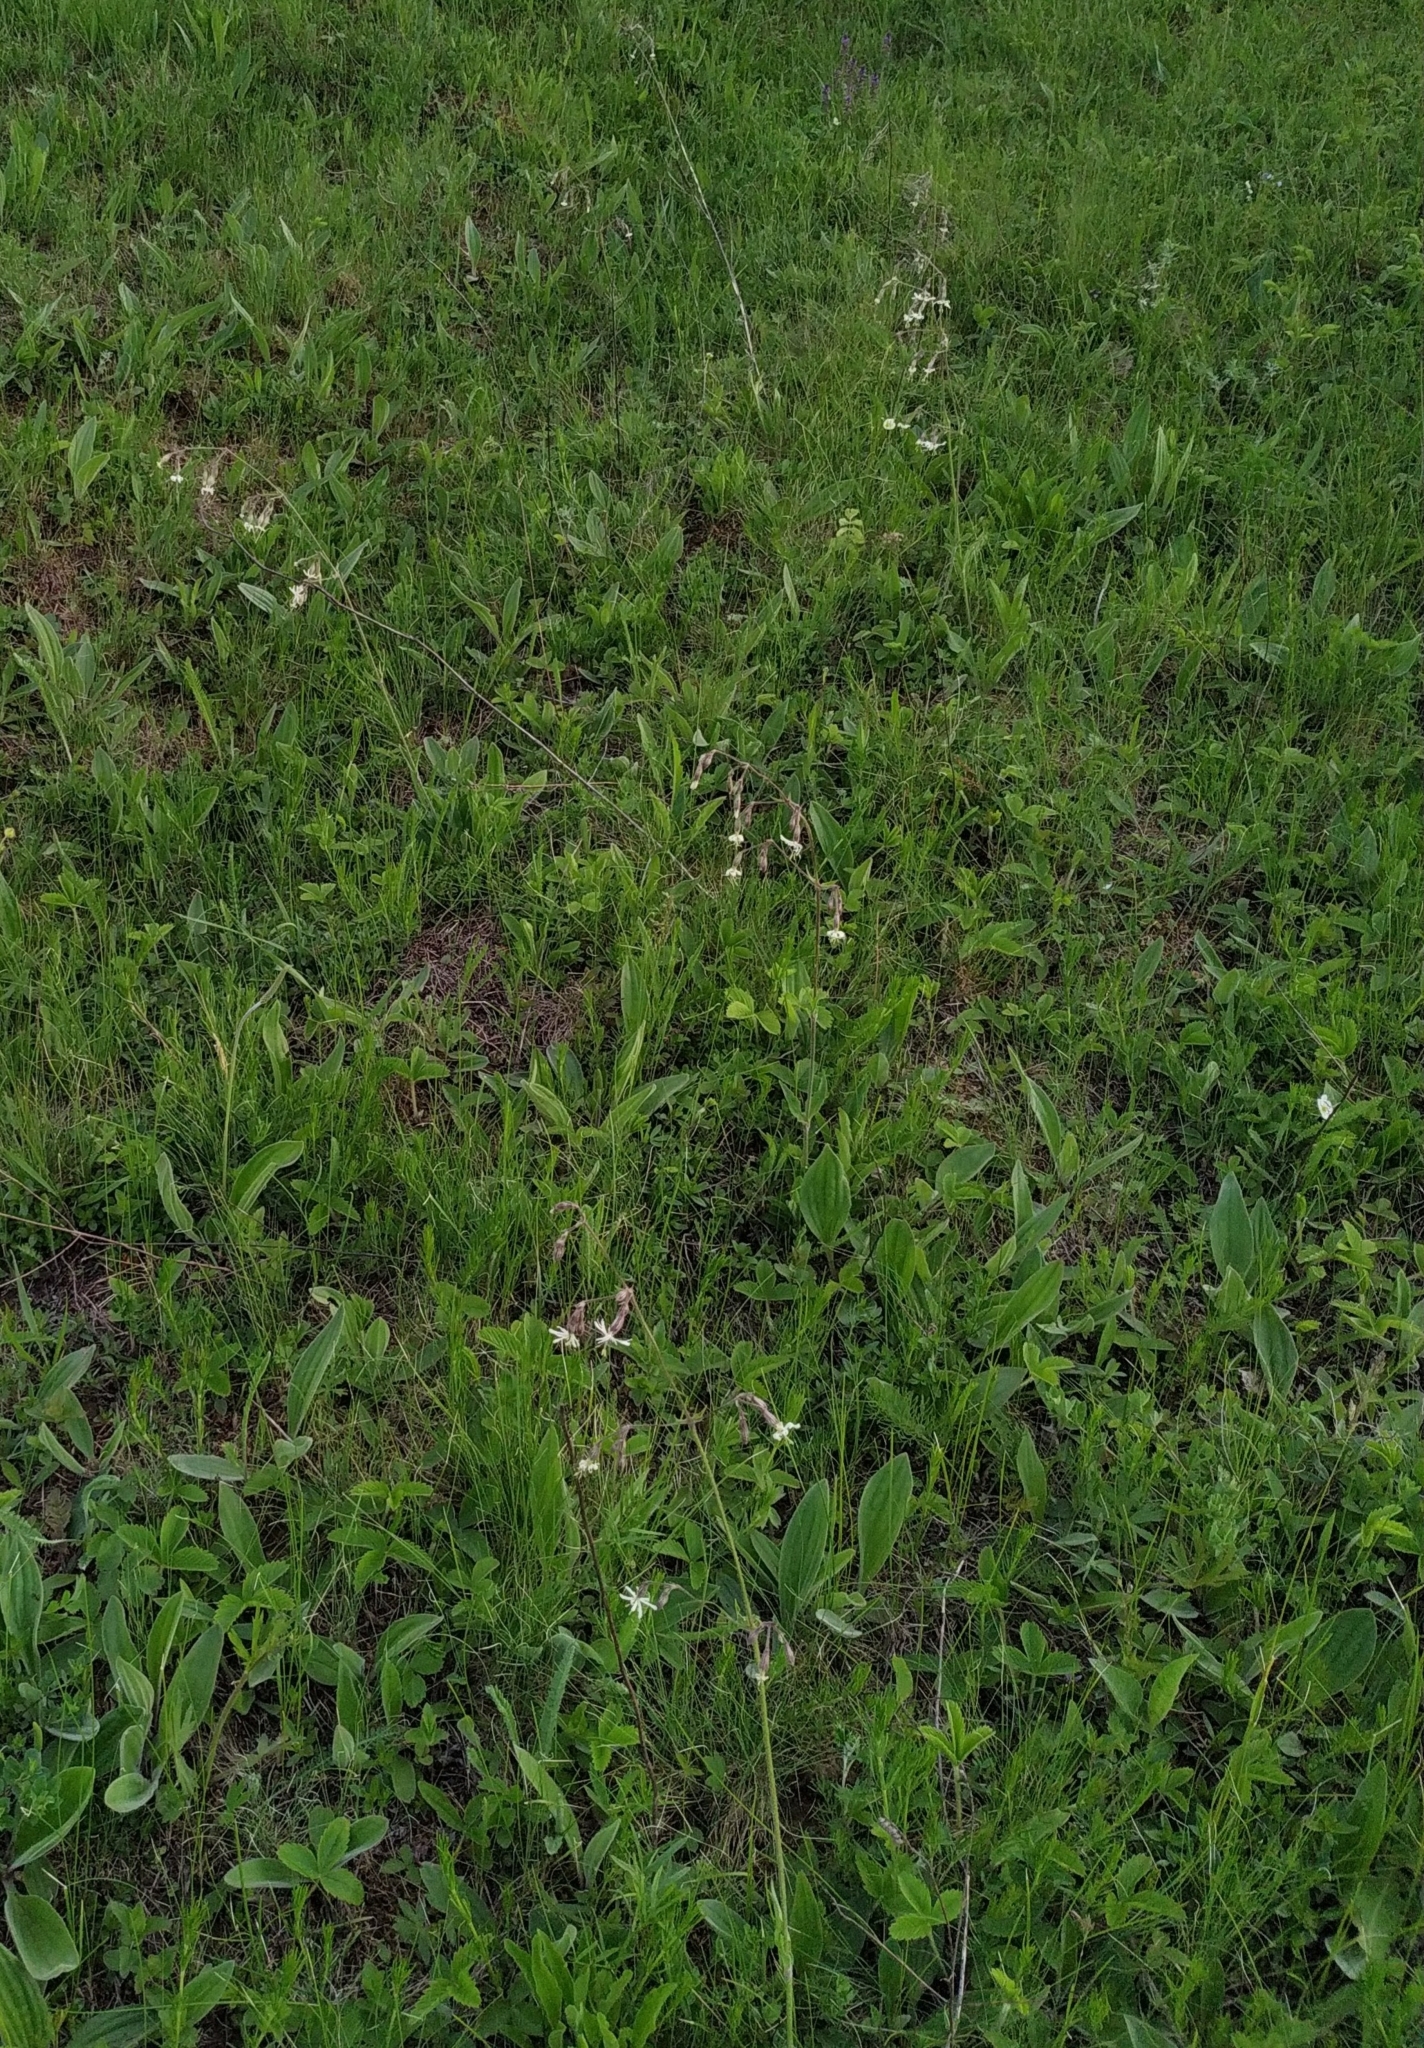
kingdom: Plantae
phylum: Tracheophyta
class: Magnoliopsida
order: Caryophyllales
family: Caryophyllaceae
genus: Silene
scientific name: Silene nutans
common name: Nottingham catchfly
